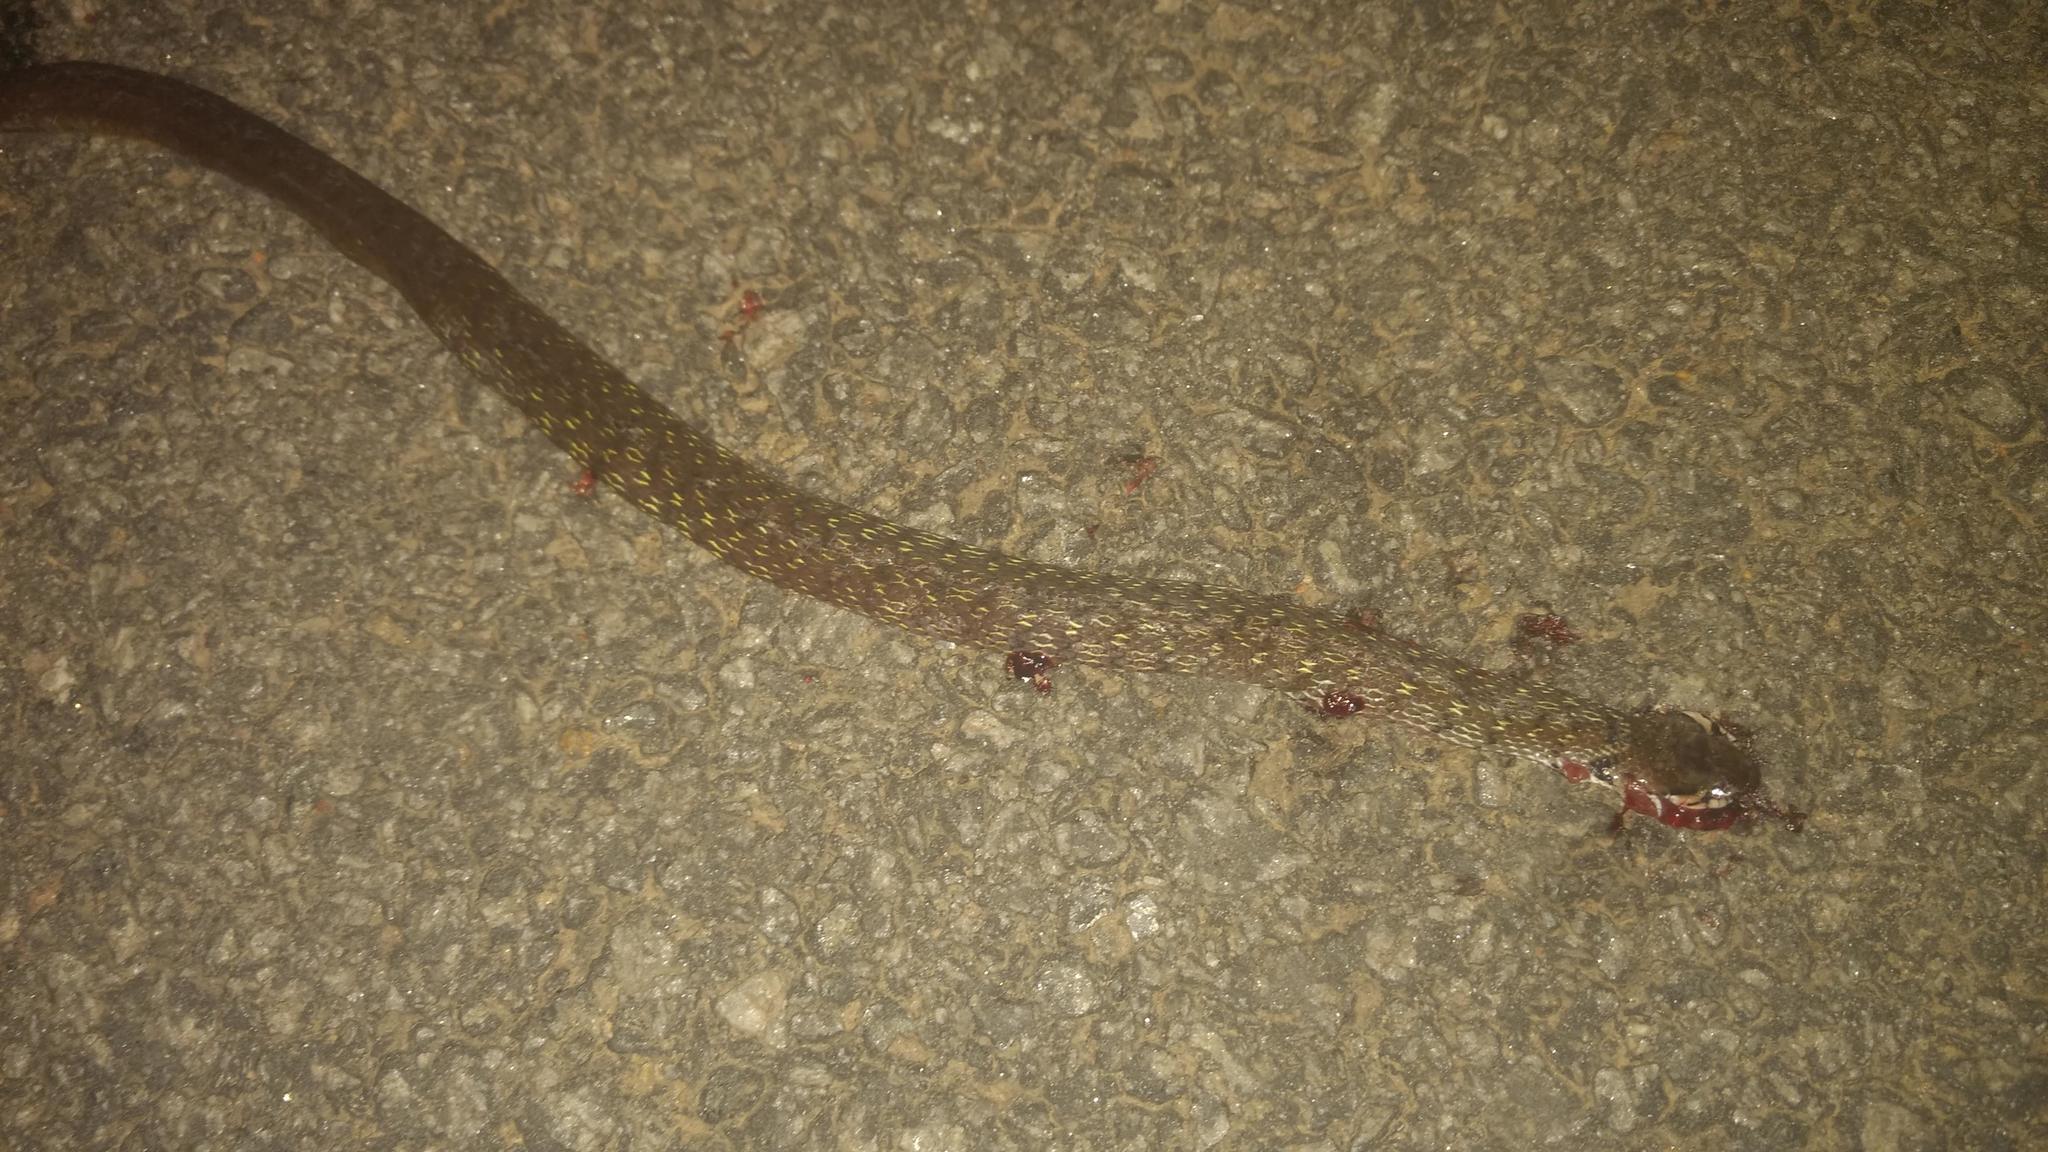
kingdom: Animalia
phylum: Chordata
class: Squamata
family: Colubridae
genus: Fowlea
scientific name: Fowlea piscator
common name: Asiatic water snake
